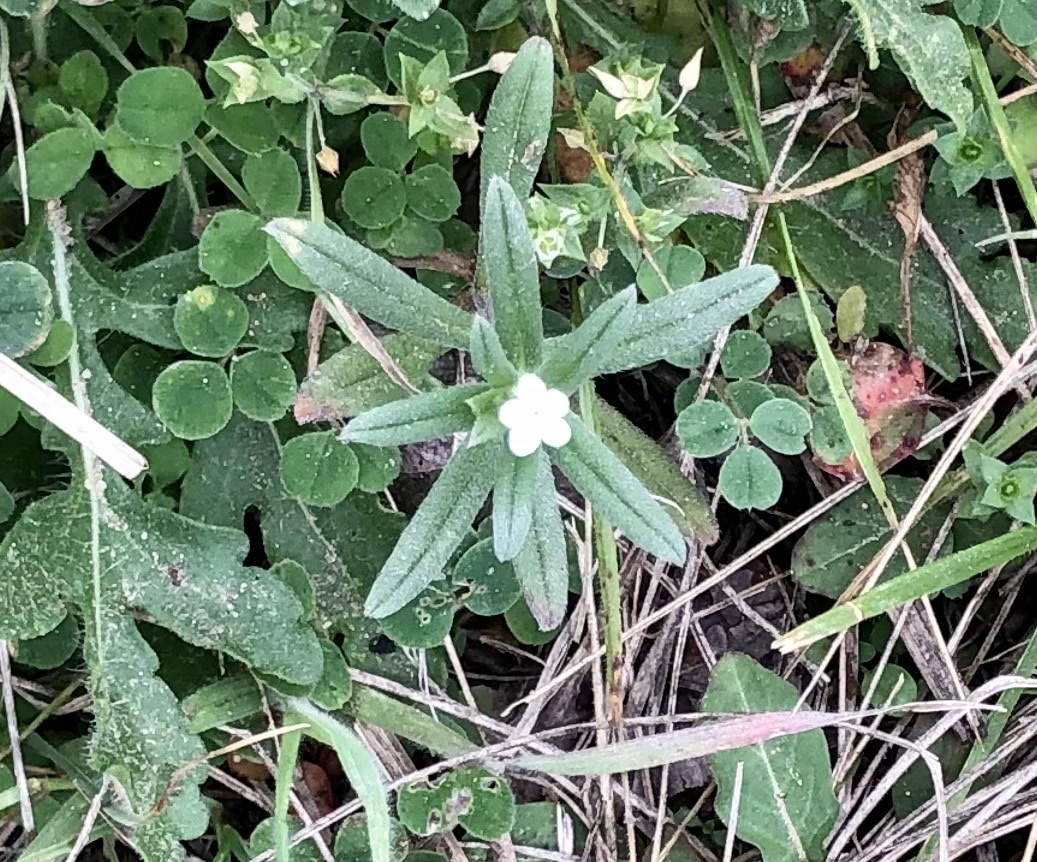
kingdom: Plantae
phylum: Tracheophyta
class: Magnoliopsida
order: Boraginales
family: Boraginaceae
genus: Buglossoides
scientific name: Buglossoides arvensis
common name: Corn gromwell
